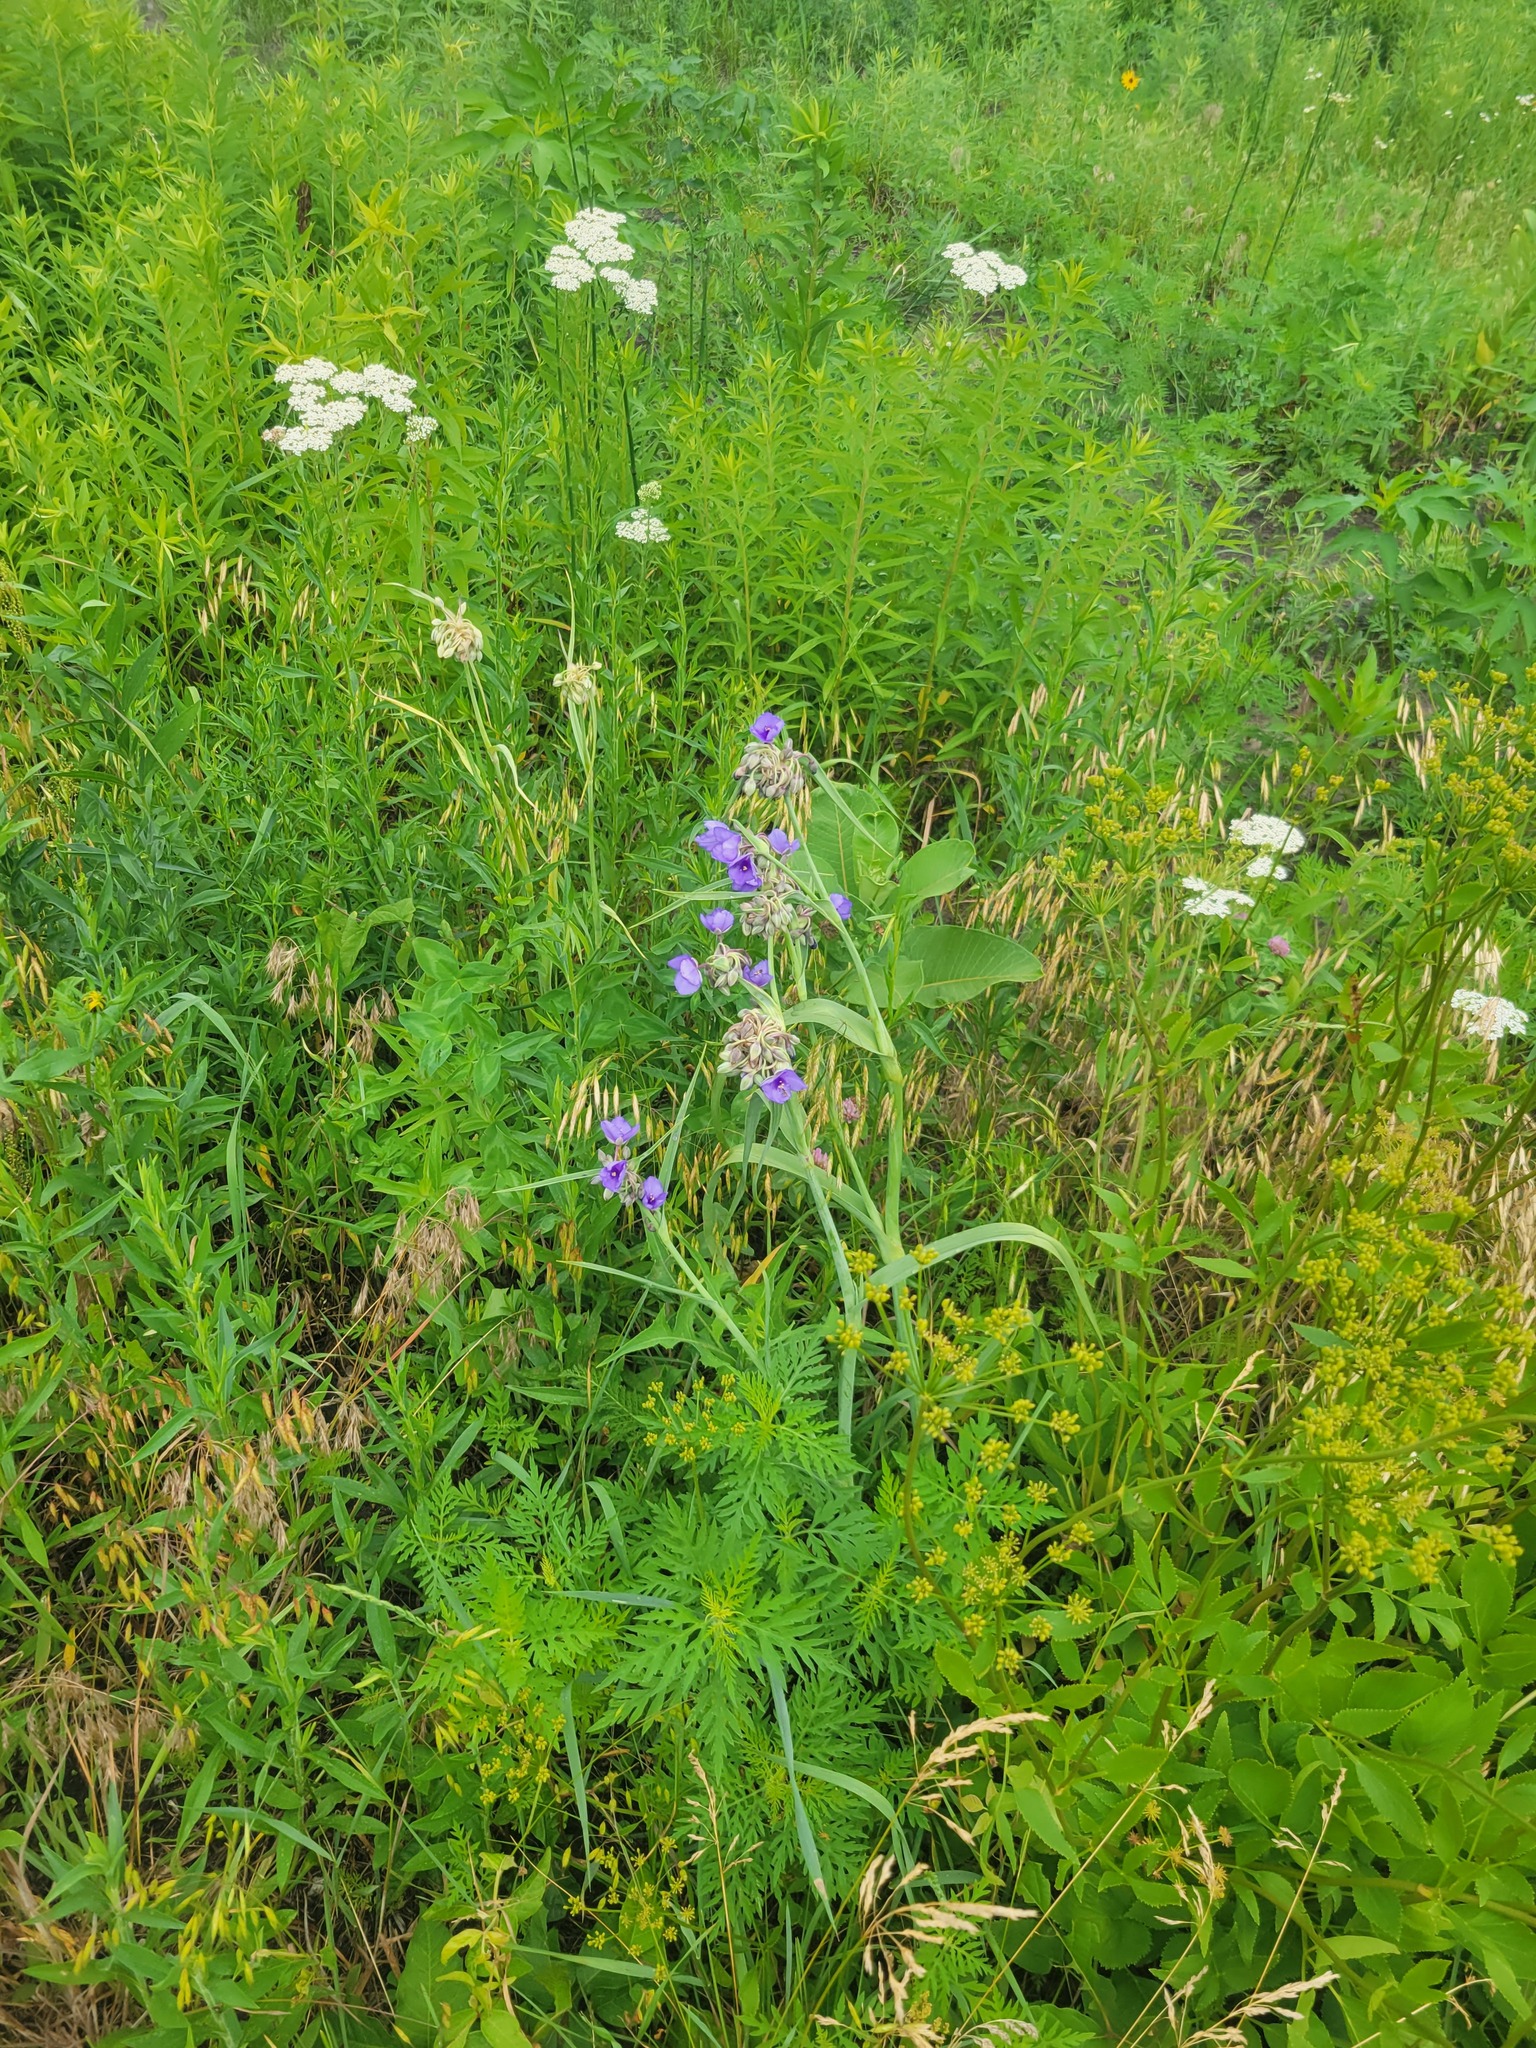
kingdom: Plantae
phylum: Tracheophyta
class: Liliopsida
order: Commelinales
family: Commelinaceae
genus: Tradescantia
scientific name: Tradescantia ohiensis
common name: Ohio spiderwort
